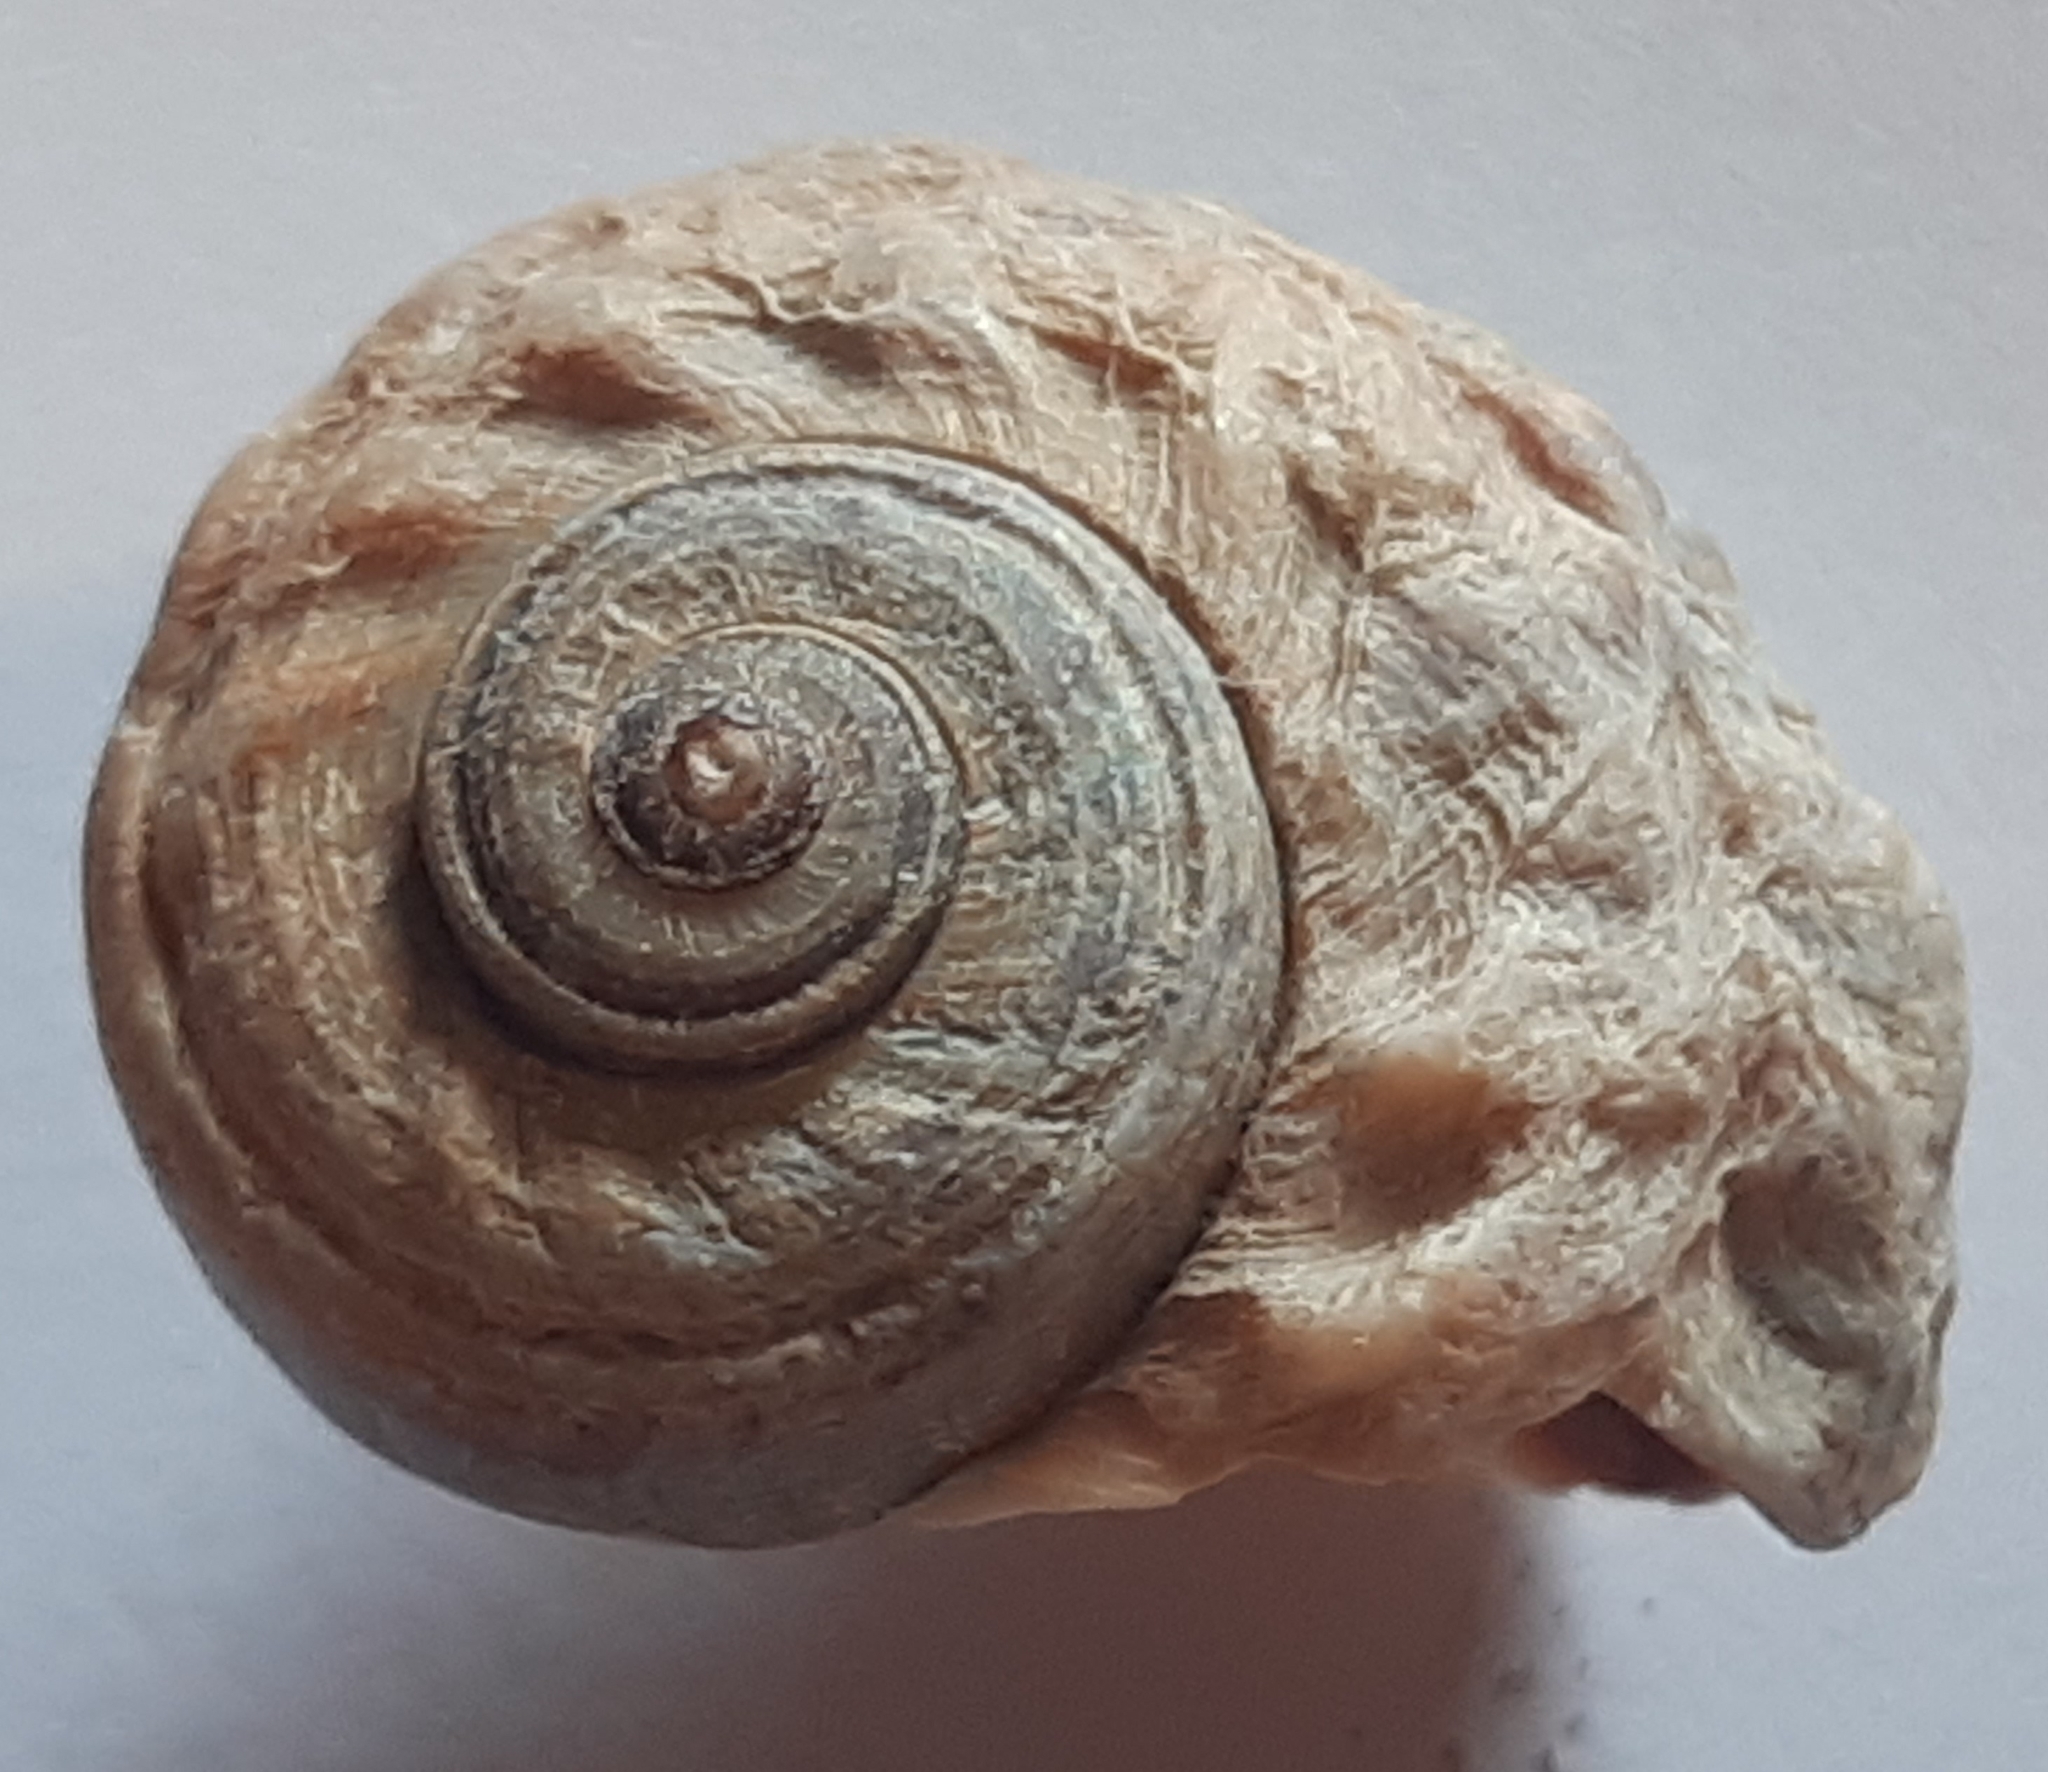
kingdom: Animalia
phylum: Mollusca
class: Gastropoda
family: Amphibolidae
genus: Amphibola
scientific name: Amphibola crenata
